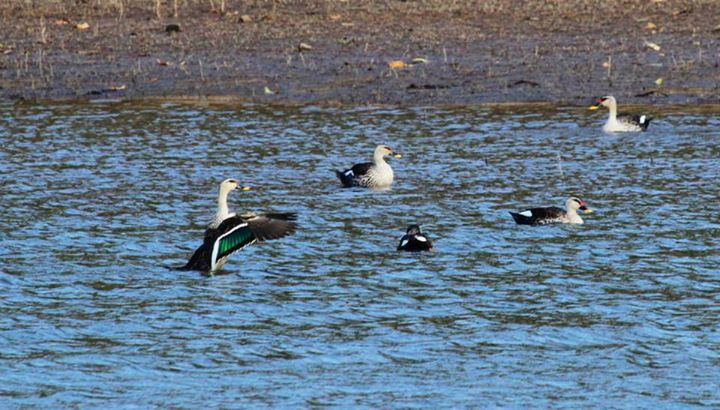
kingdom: Animalia
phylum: Chordata
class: Aves
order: Anseriformes
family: Anatidae
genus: Anas
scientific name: Anas poecilorhyncha
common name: Indian spot-billed duck
